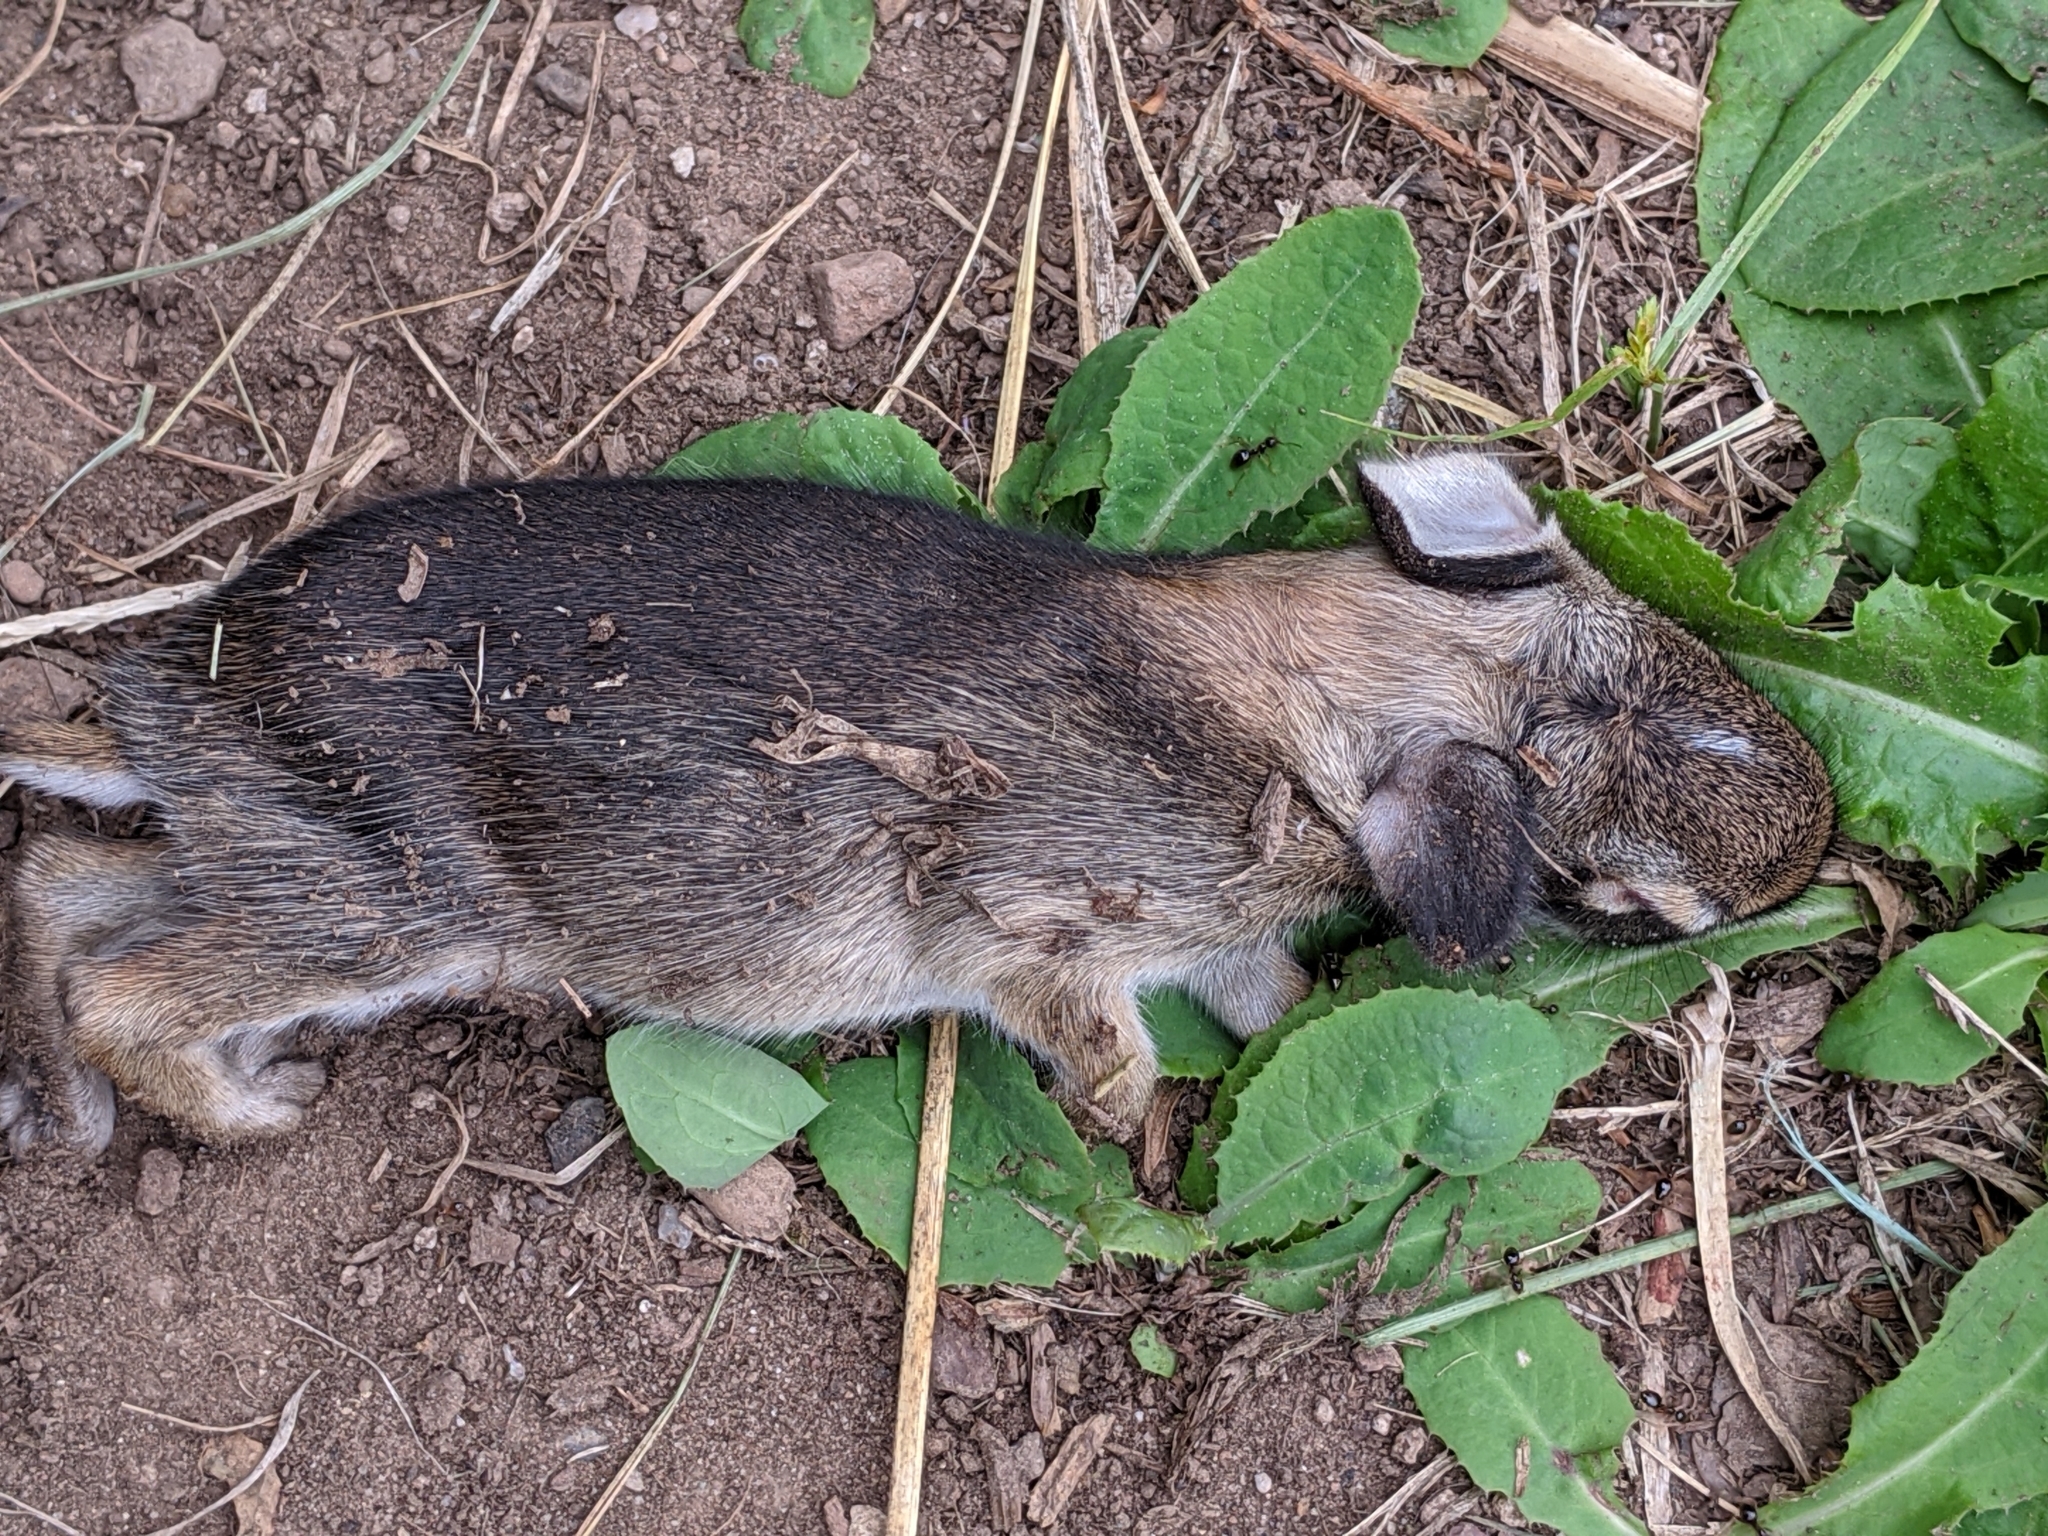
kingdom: Animalia
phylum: Chordata
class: Mammalia
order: Lagomorpha
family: Leporidae
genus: Sylvilagus
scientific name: Sylvilagus floridanus
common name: Eastern cottontail
